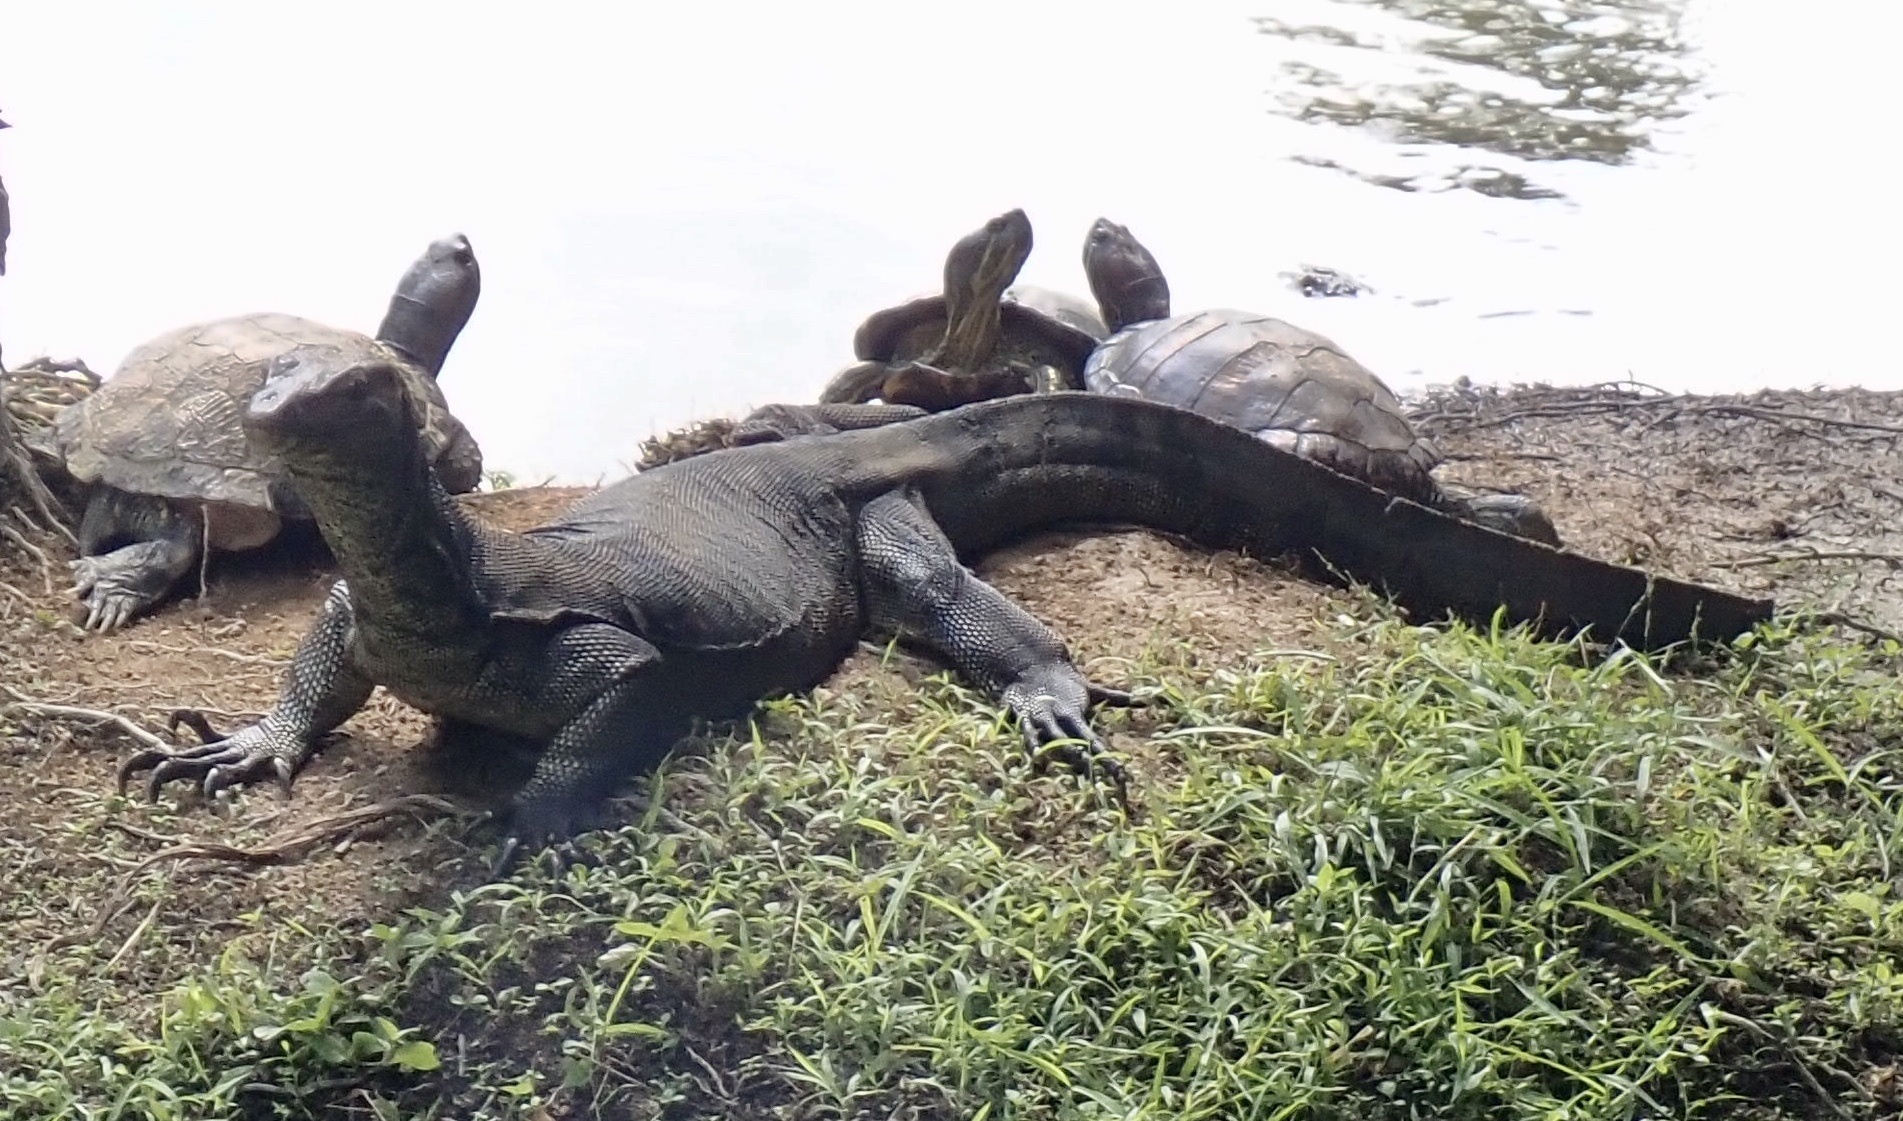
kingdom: Animalia
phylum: Chordata
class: Squamata
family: Varanidae
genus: Varanus
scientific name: Varanus salvator
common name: Common water monitor
